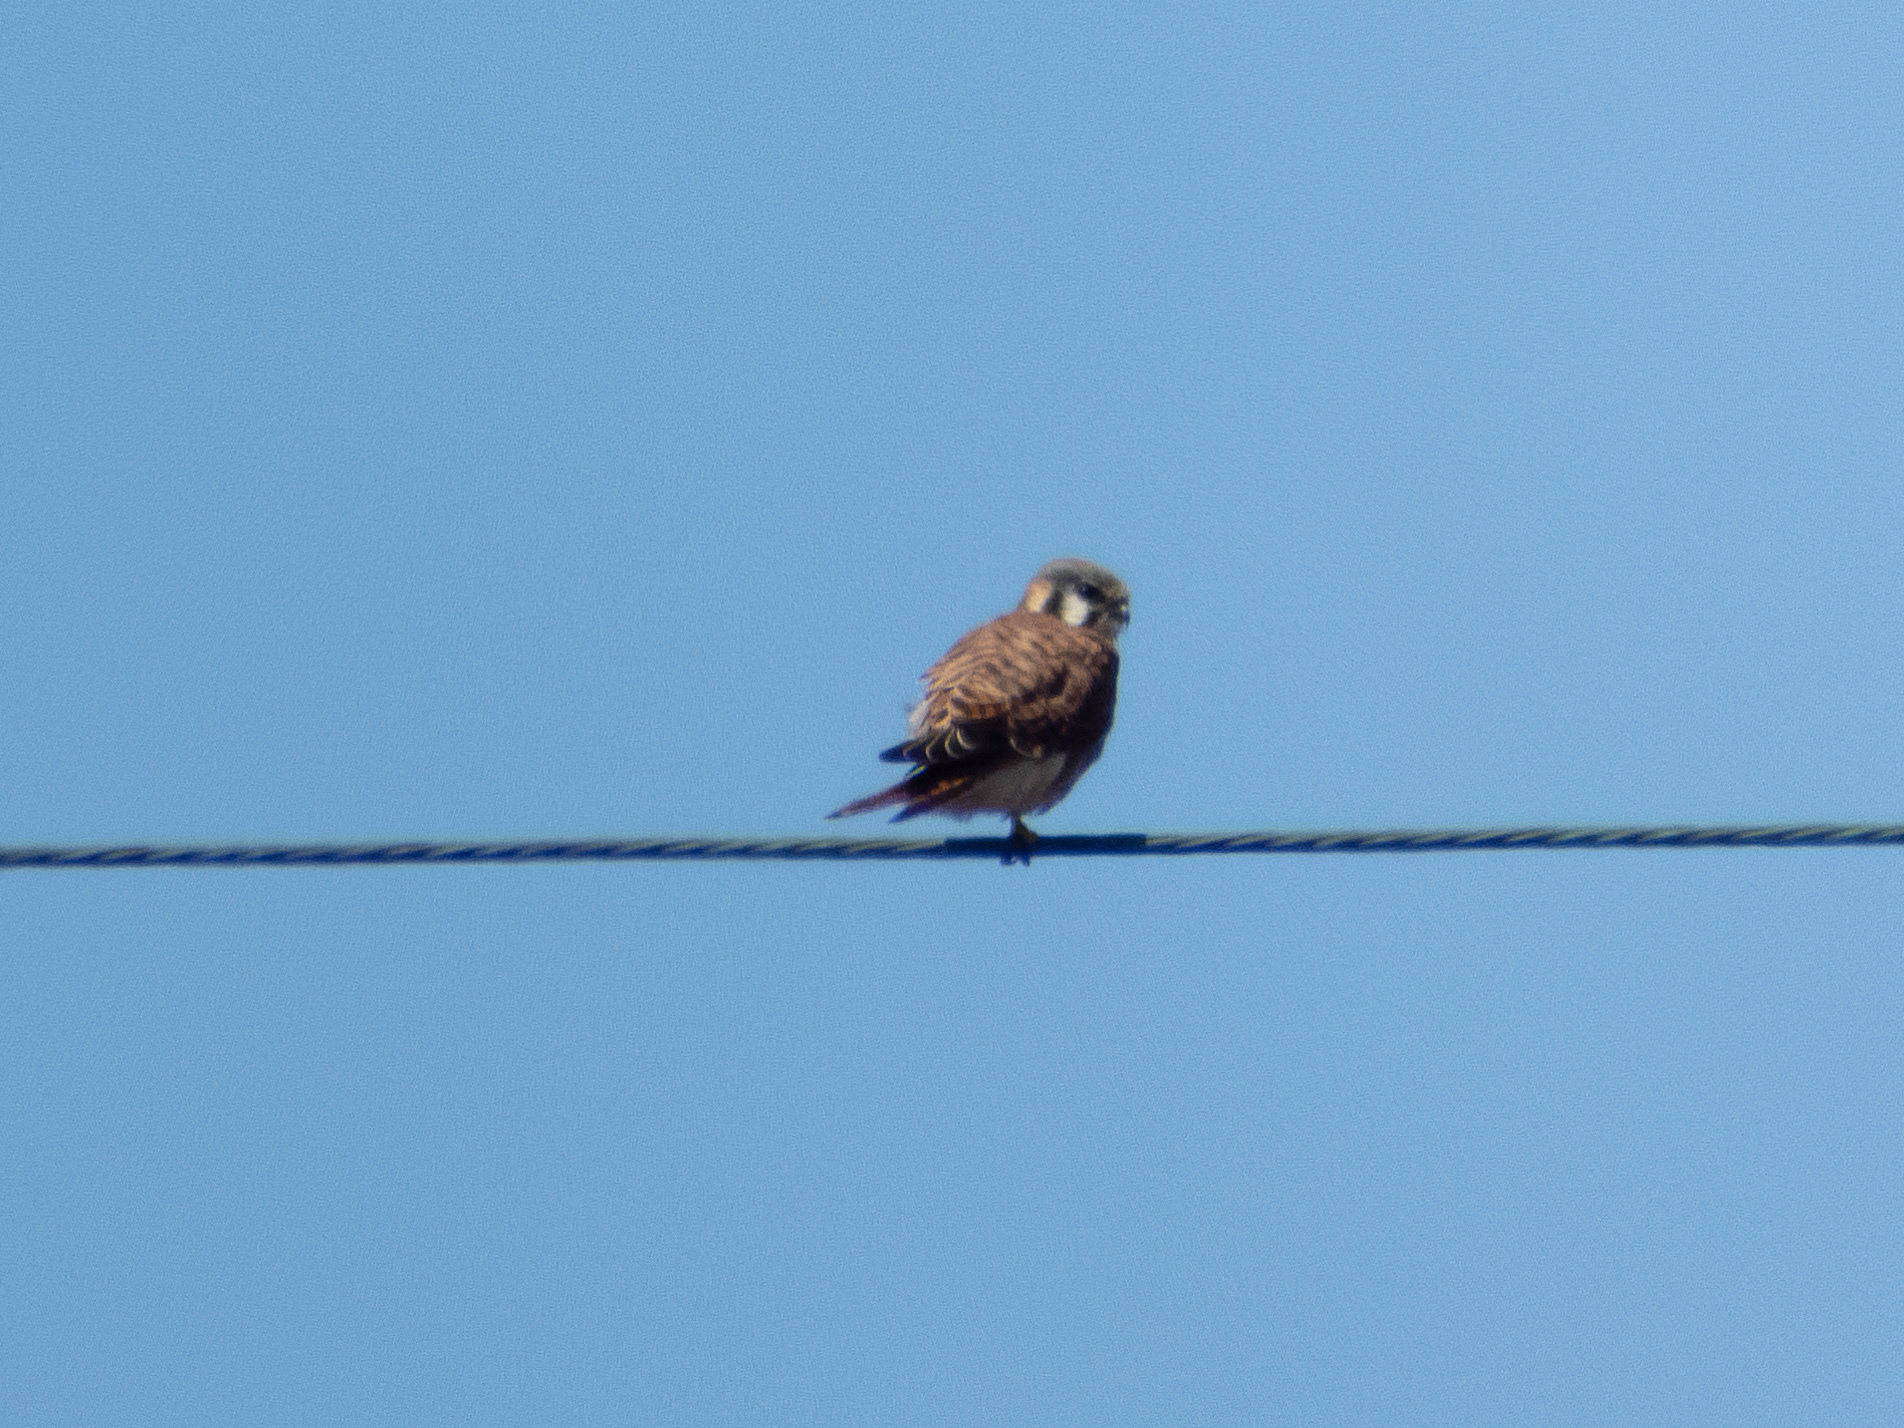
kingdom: Animalia
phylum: Chordata
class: Aves
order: Falconiformes
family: Falconidae
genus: Falco
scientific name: Falco sparverius
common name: American kestrel
